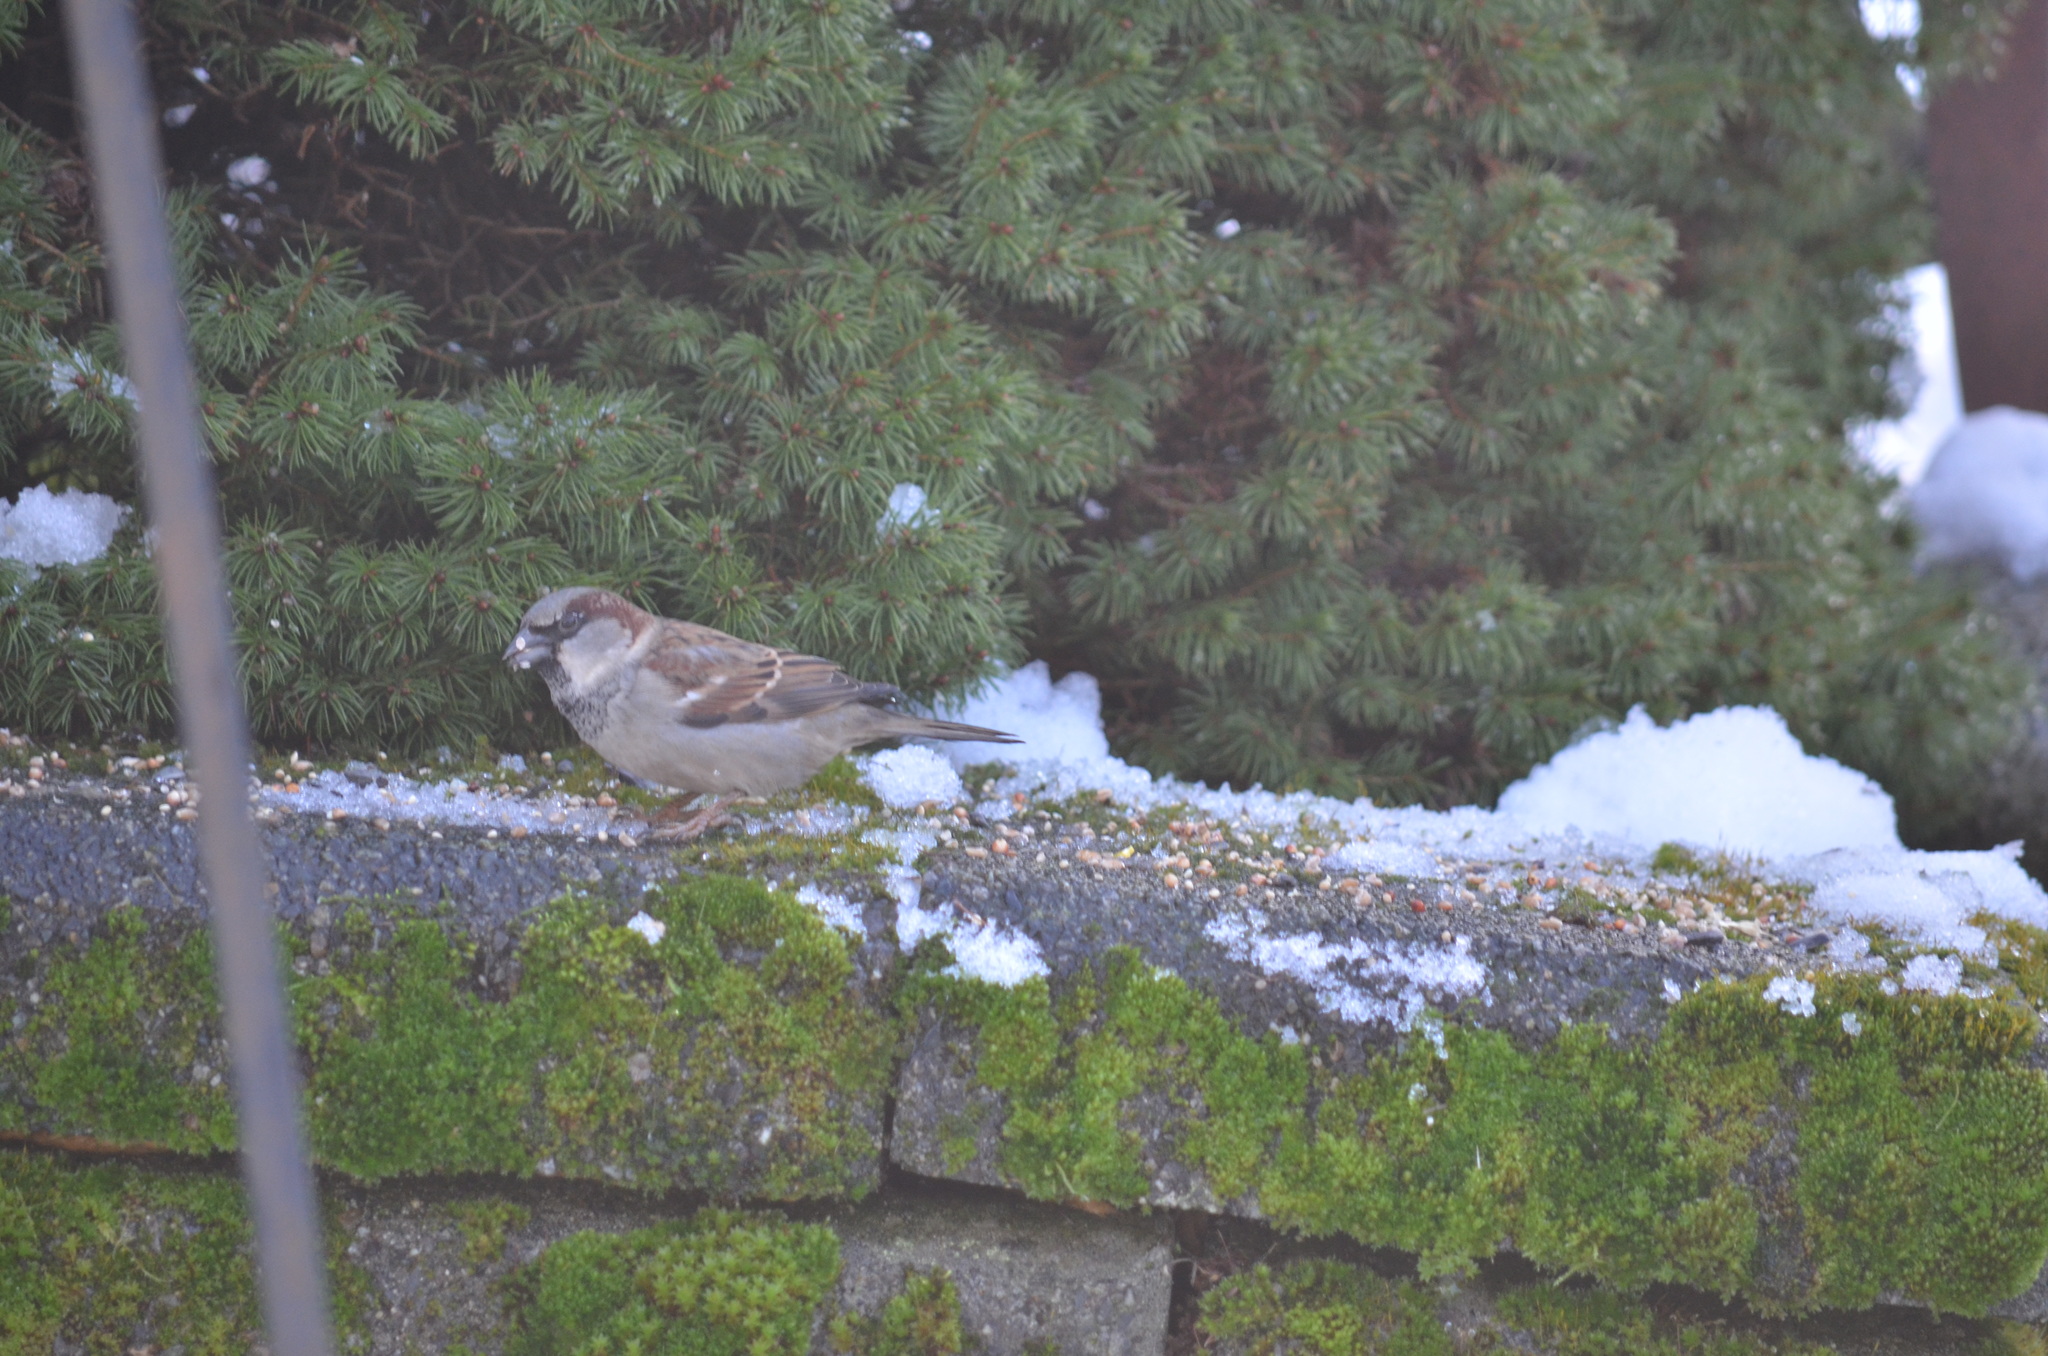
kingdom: Animalia
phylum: Chordata
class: Aves
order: Passeriformes
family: Passeridae
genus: Passer
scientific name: Passer domesticus
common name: House sparrow
